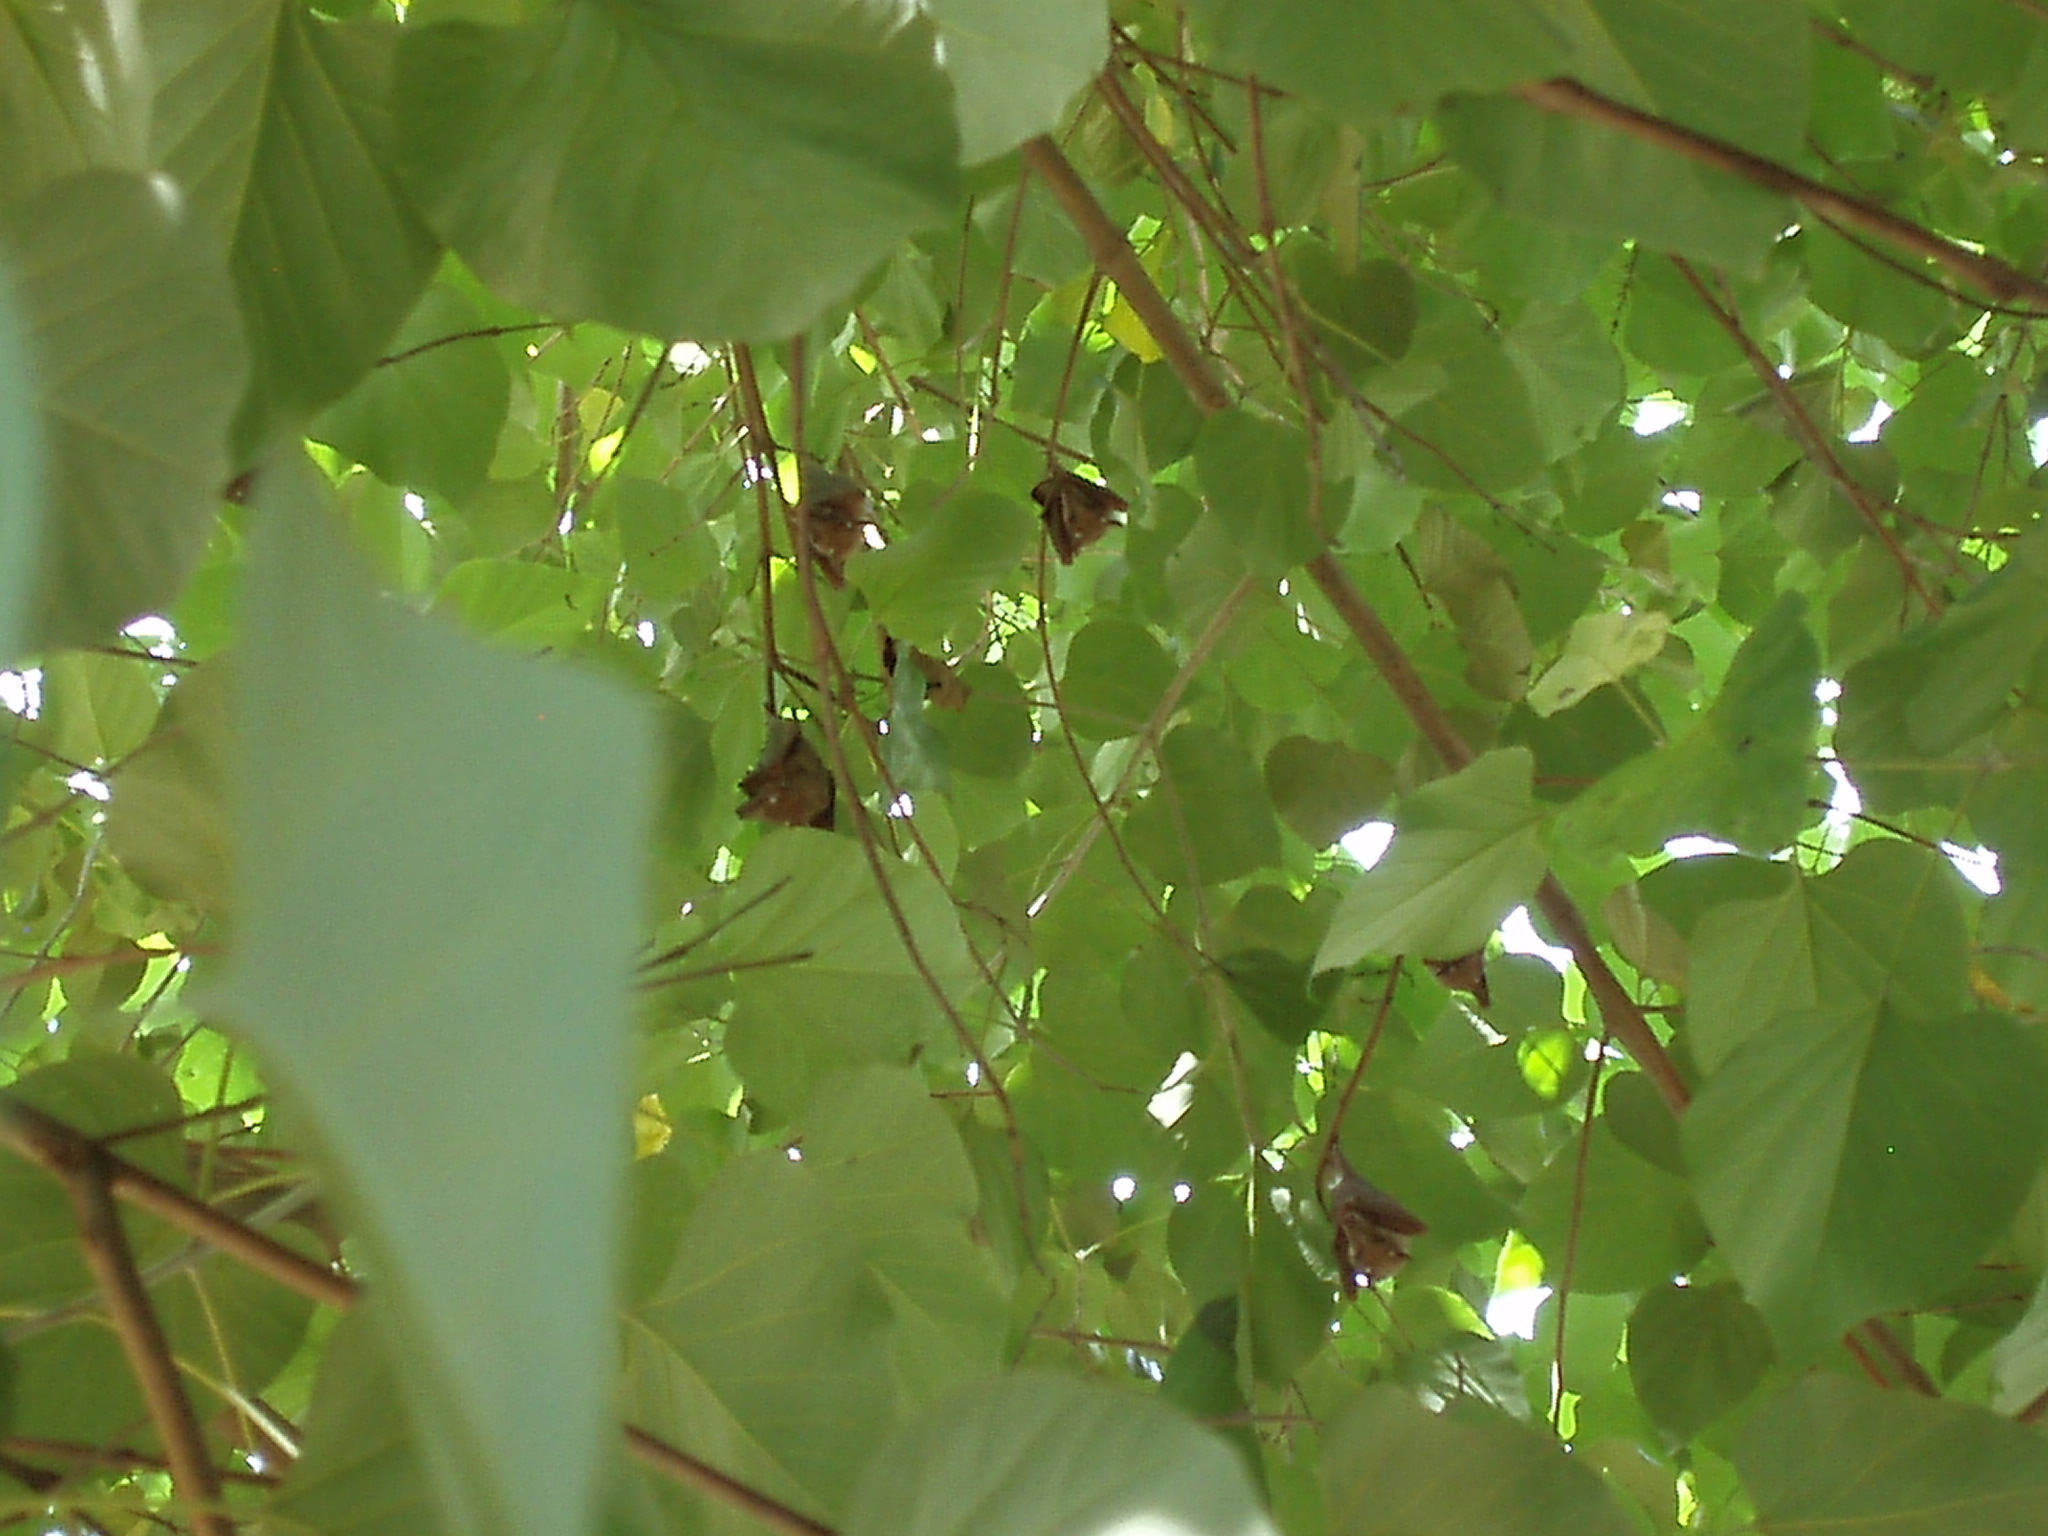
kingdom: Animalia
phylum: Chordata
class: Mammalia
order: Chiroptera
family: Pteropodidae
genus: Epomophorus
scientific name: Epomophorus gambianus
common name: Gambian epauletted fruit bat
